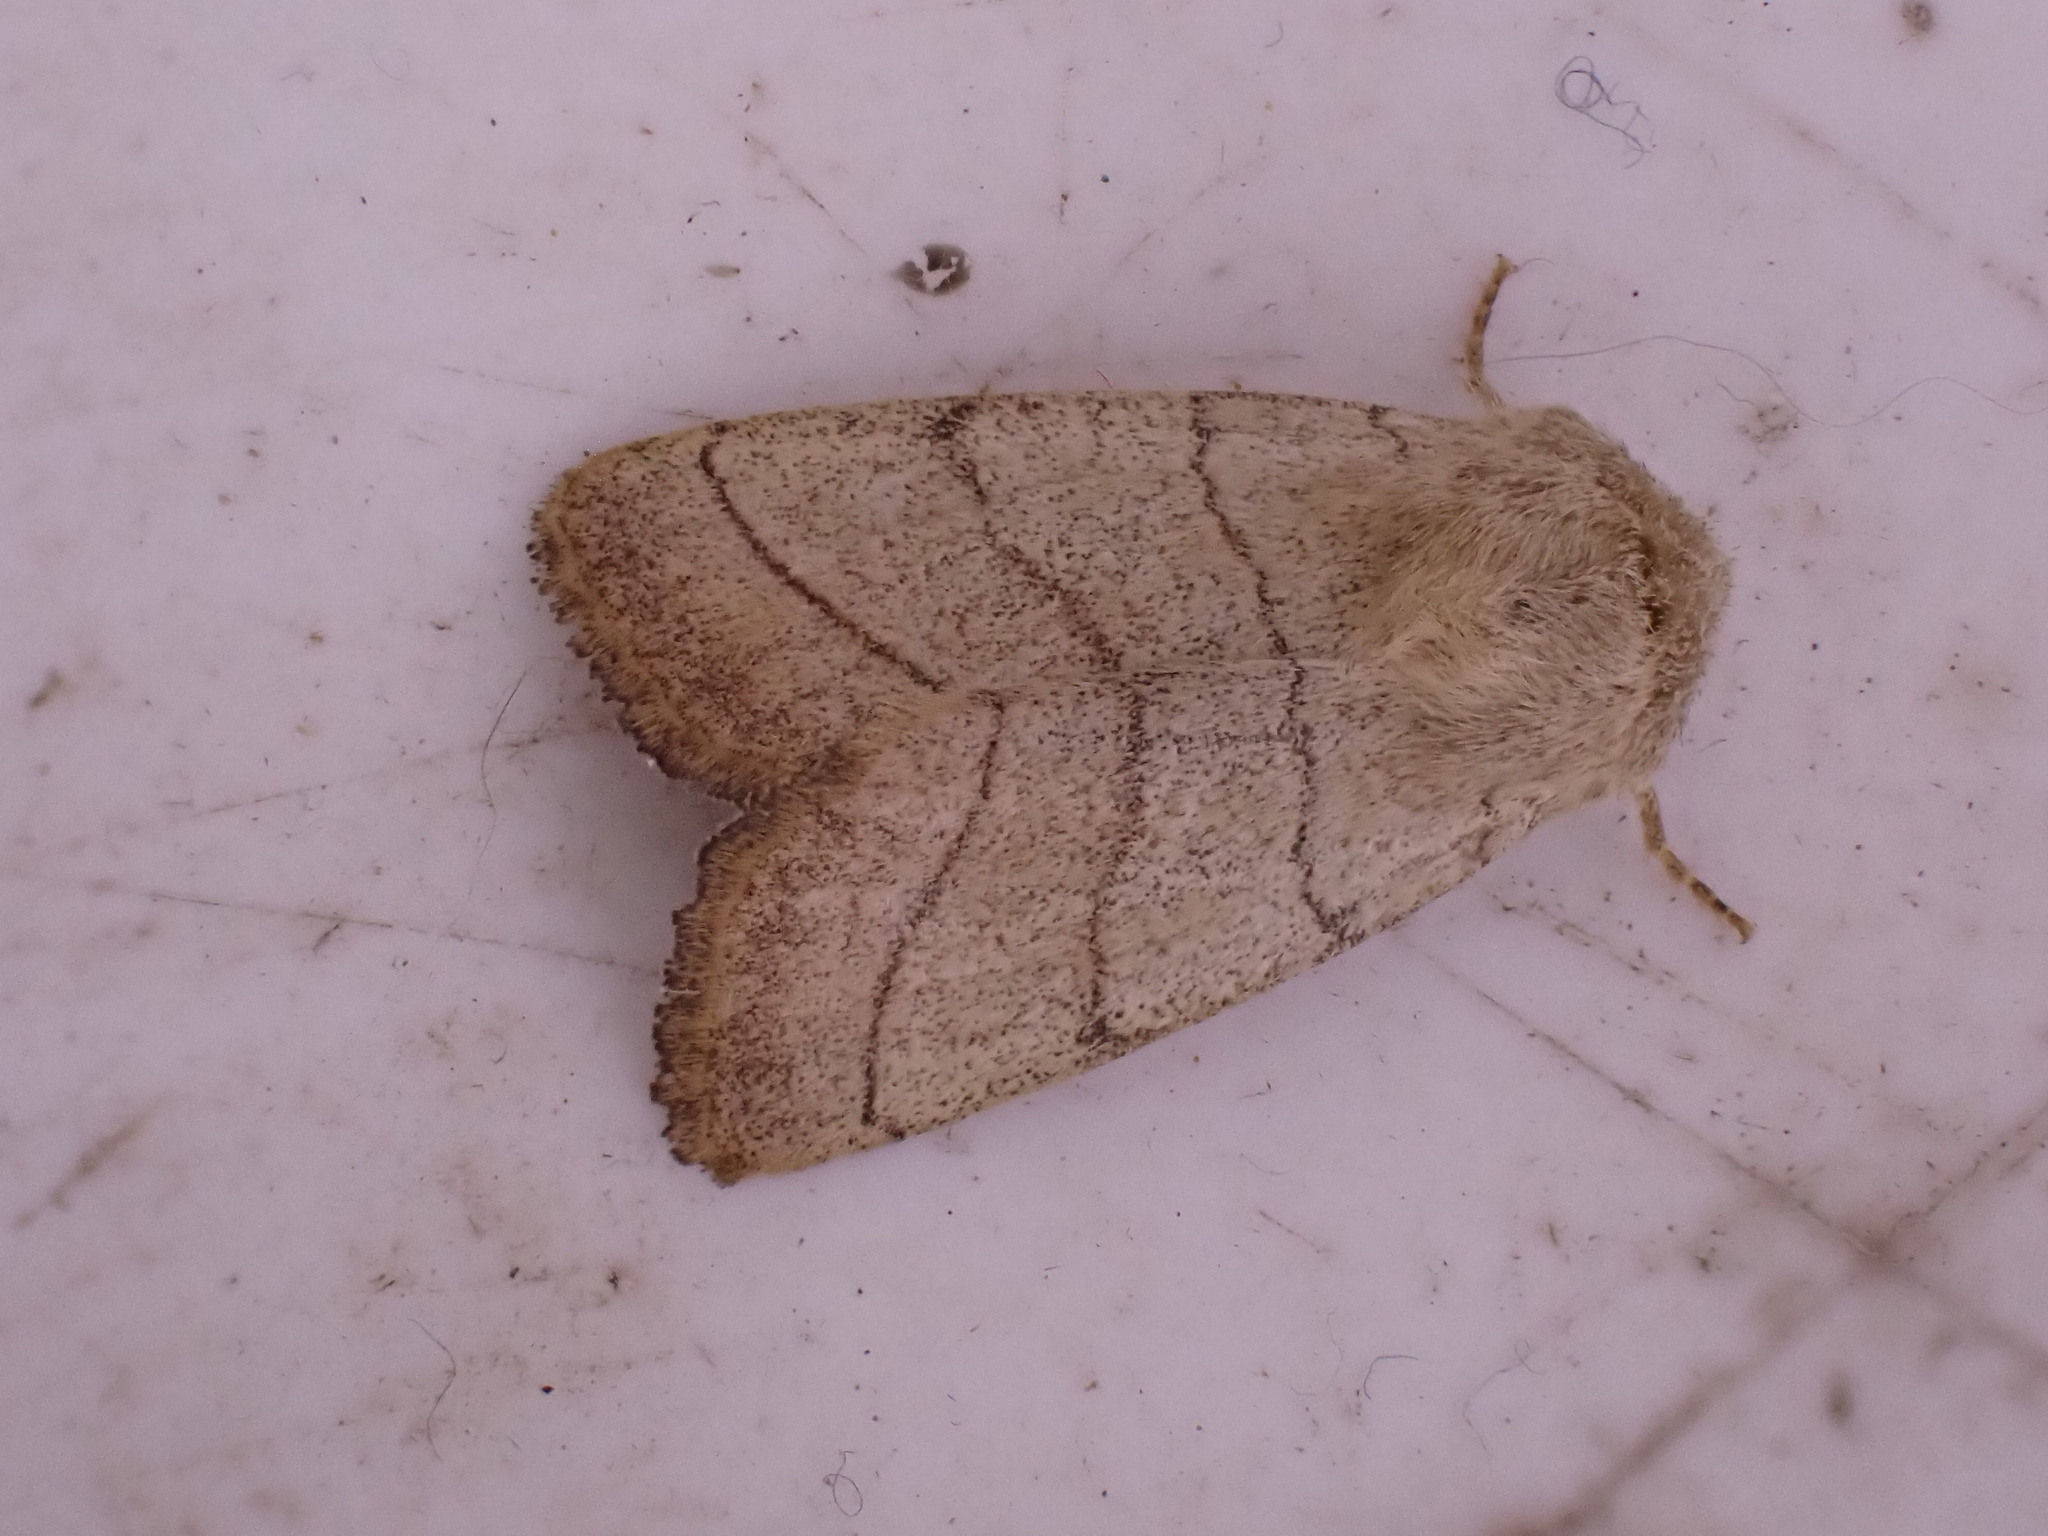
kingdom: Animalia
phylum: Arthropoda
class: Insecta
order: Lepidoptera
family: Noctuidae
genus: Charanyca
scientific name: Charanyca trigrammica
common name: Treble lines
